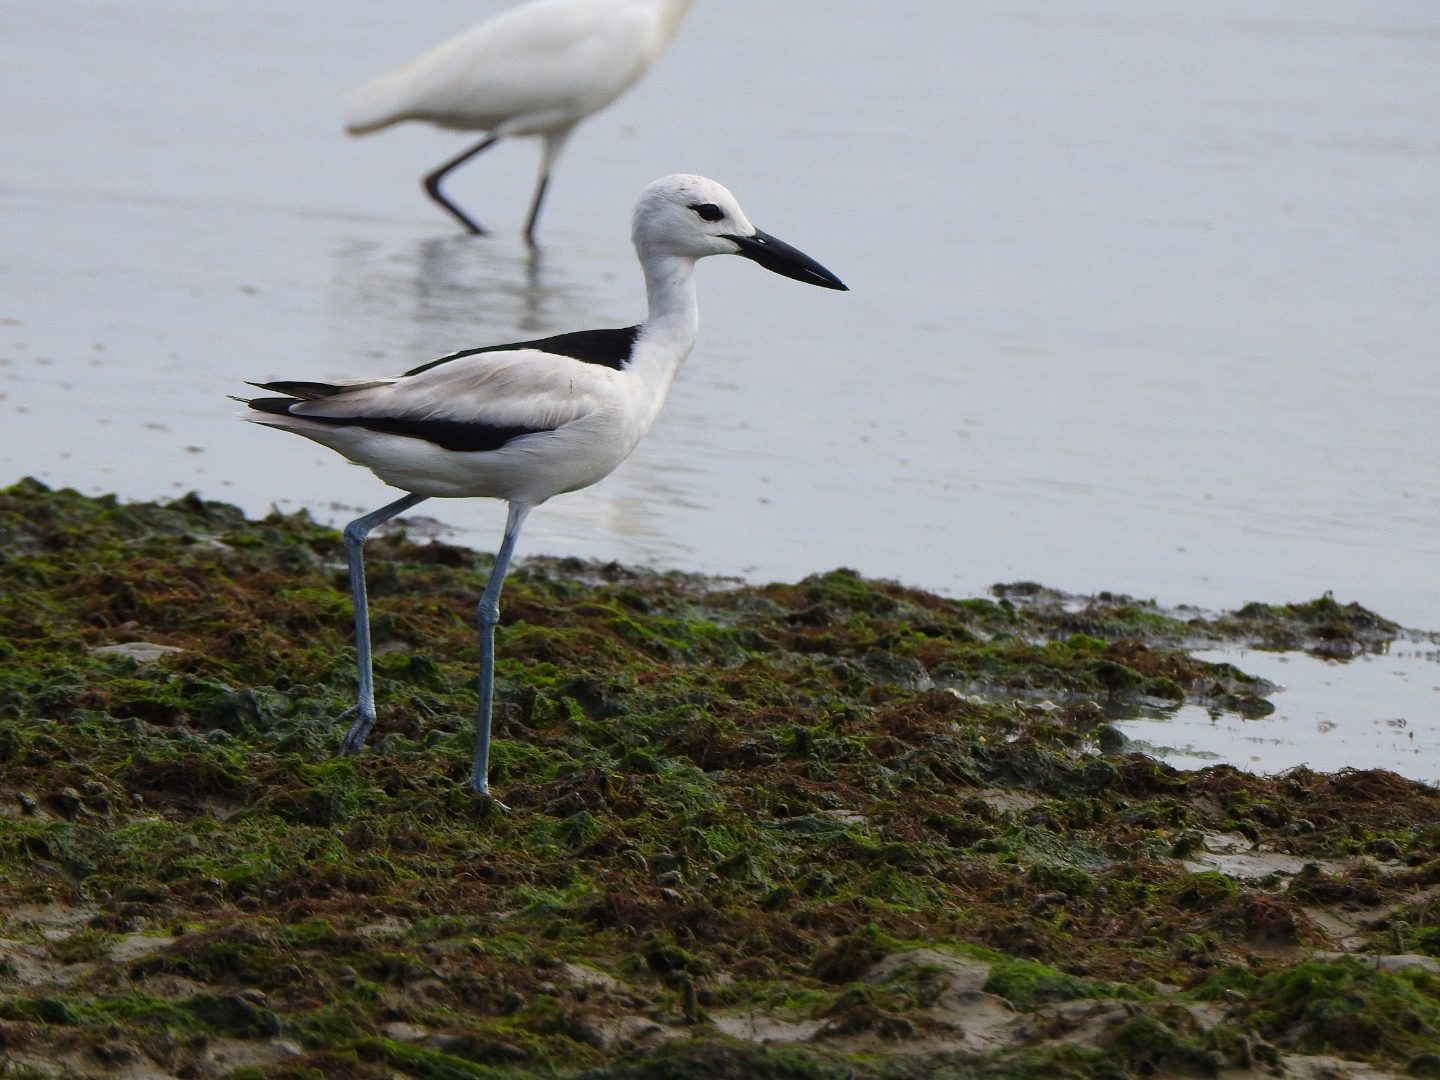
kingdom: Animalia
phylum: Chordata
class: Aves
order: Charadriiformes
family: Dromadidae
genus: Dromas
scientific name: Dromas ardeola
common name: Crab-plover
